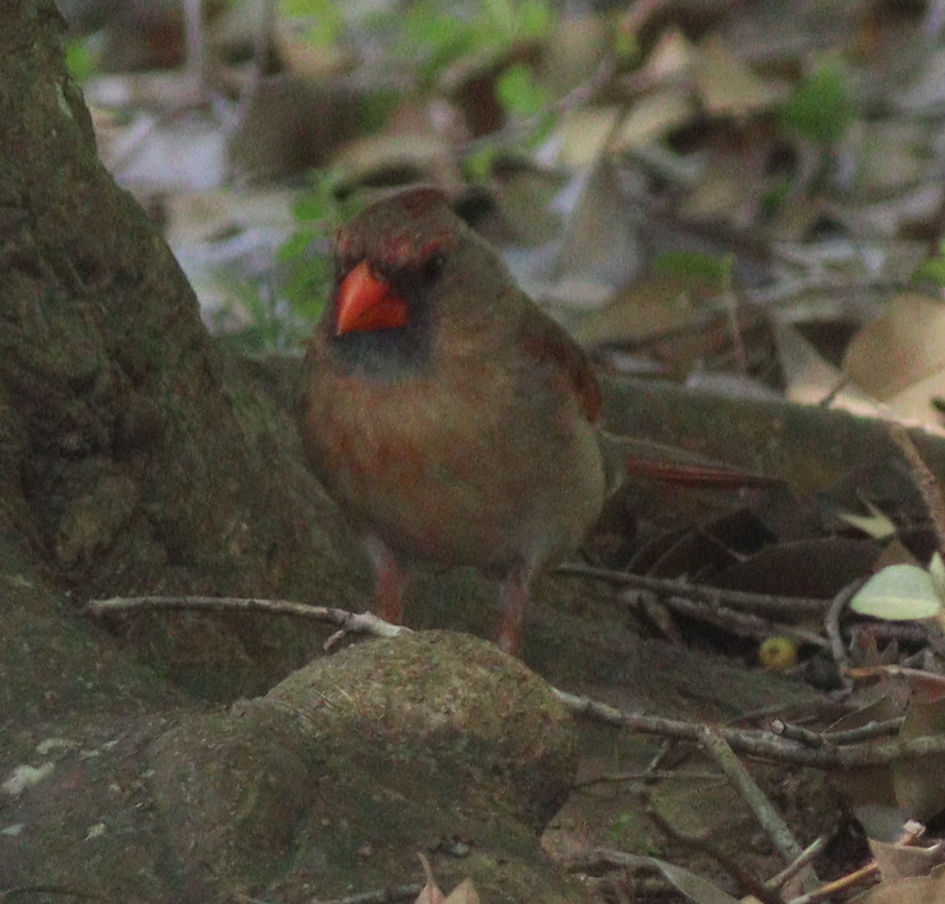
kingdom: Animalia
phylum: Chordata
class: Aves
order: Passeriformes
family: Cardinalidae
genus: Cardinalis
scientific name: Cardinalis cardinalis
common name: Northern cardinal
